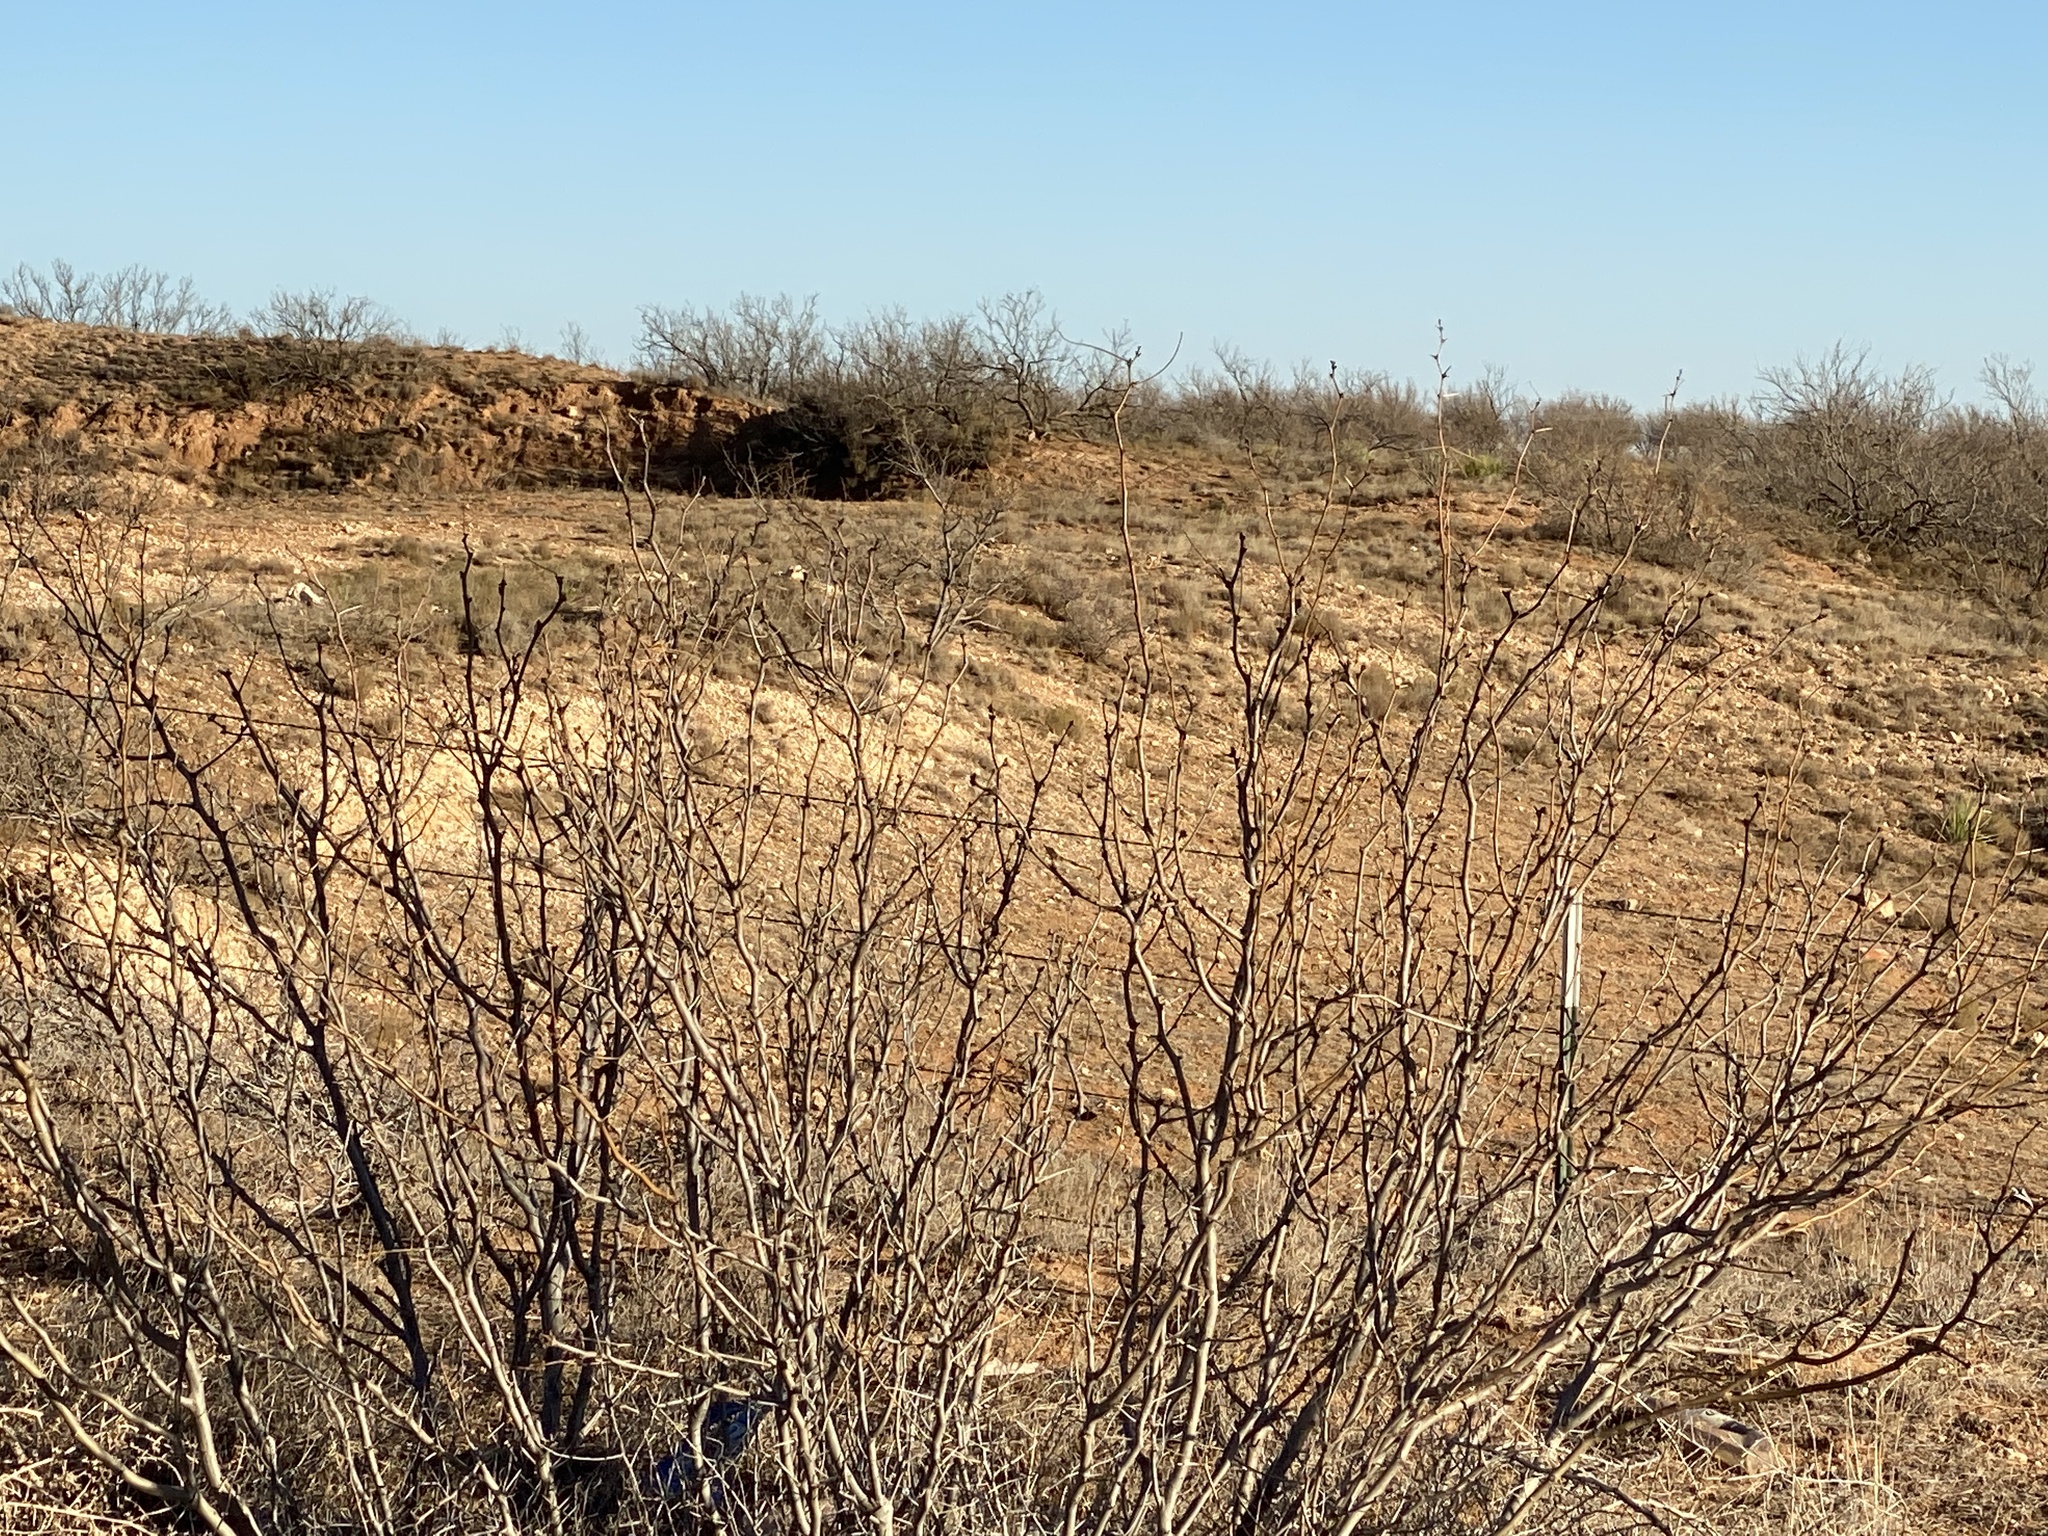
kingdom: Plantae
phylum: Tracheophyta
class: Magnoliopsida
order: Fabales
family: Fabaceae
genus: Prosopis
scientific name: Prosopis glandulosa
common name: Honey mesquite
